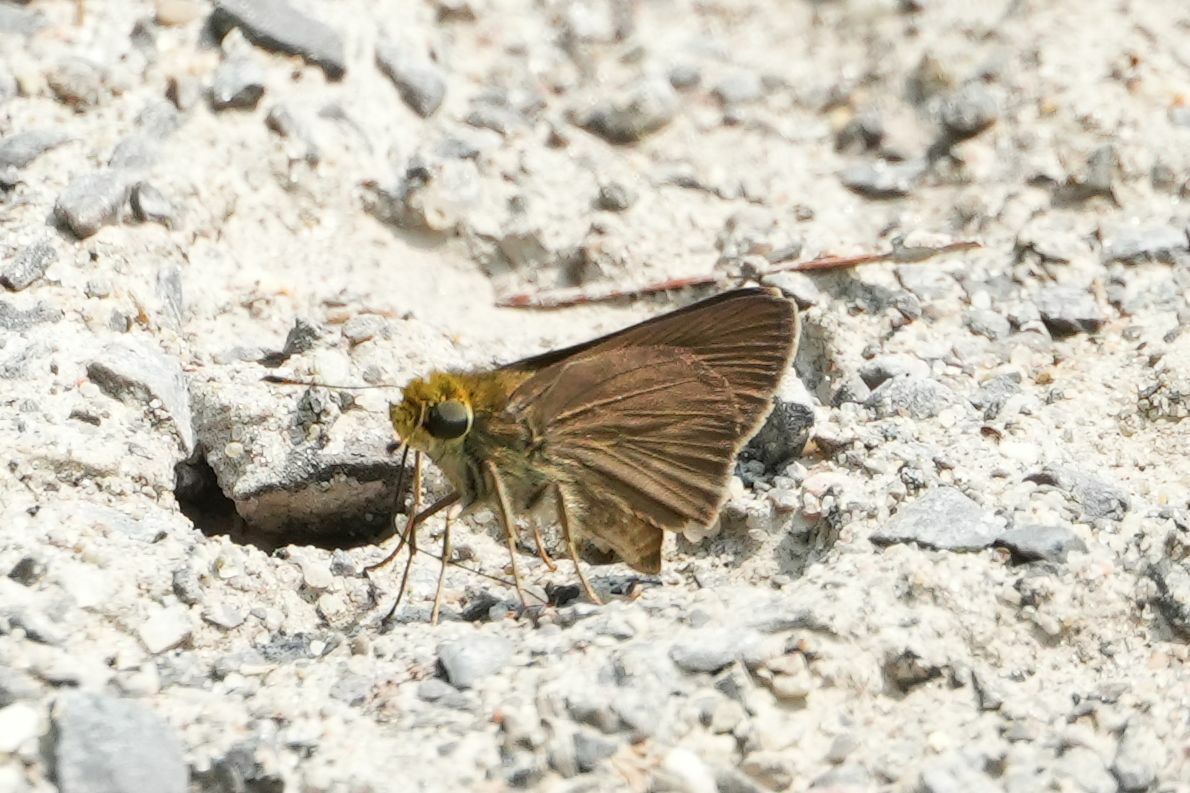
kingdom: Animalia
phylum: Arthropoda
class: Insecta
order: Lepidoptera
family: Hesperiidae
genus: Euphyes
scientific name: Euphyes vestris
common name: Dun skipper
